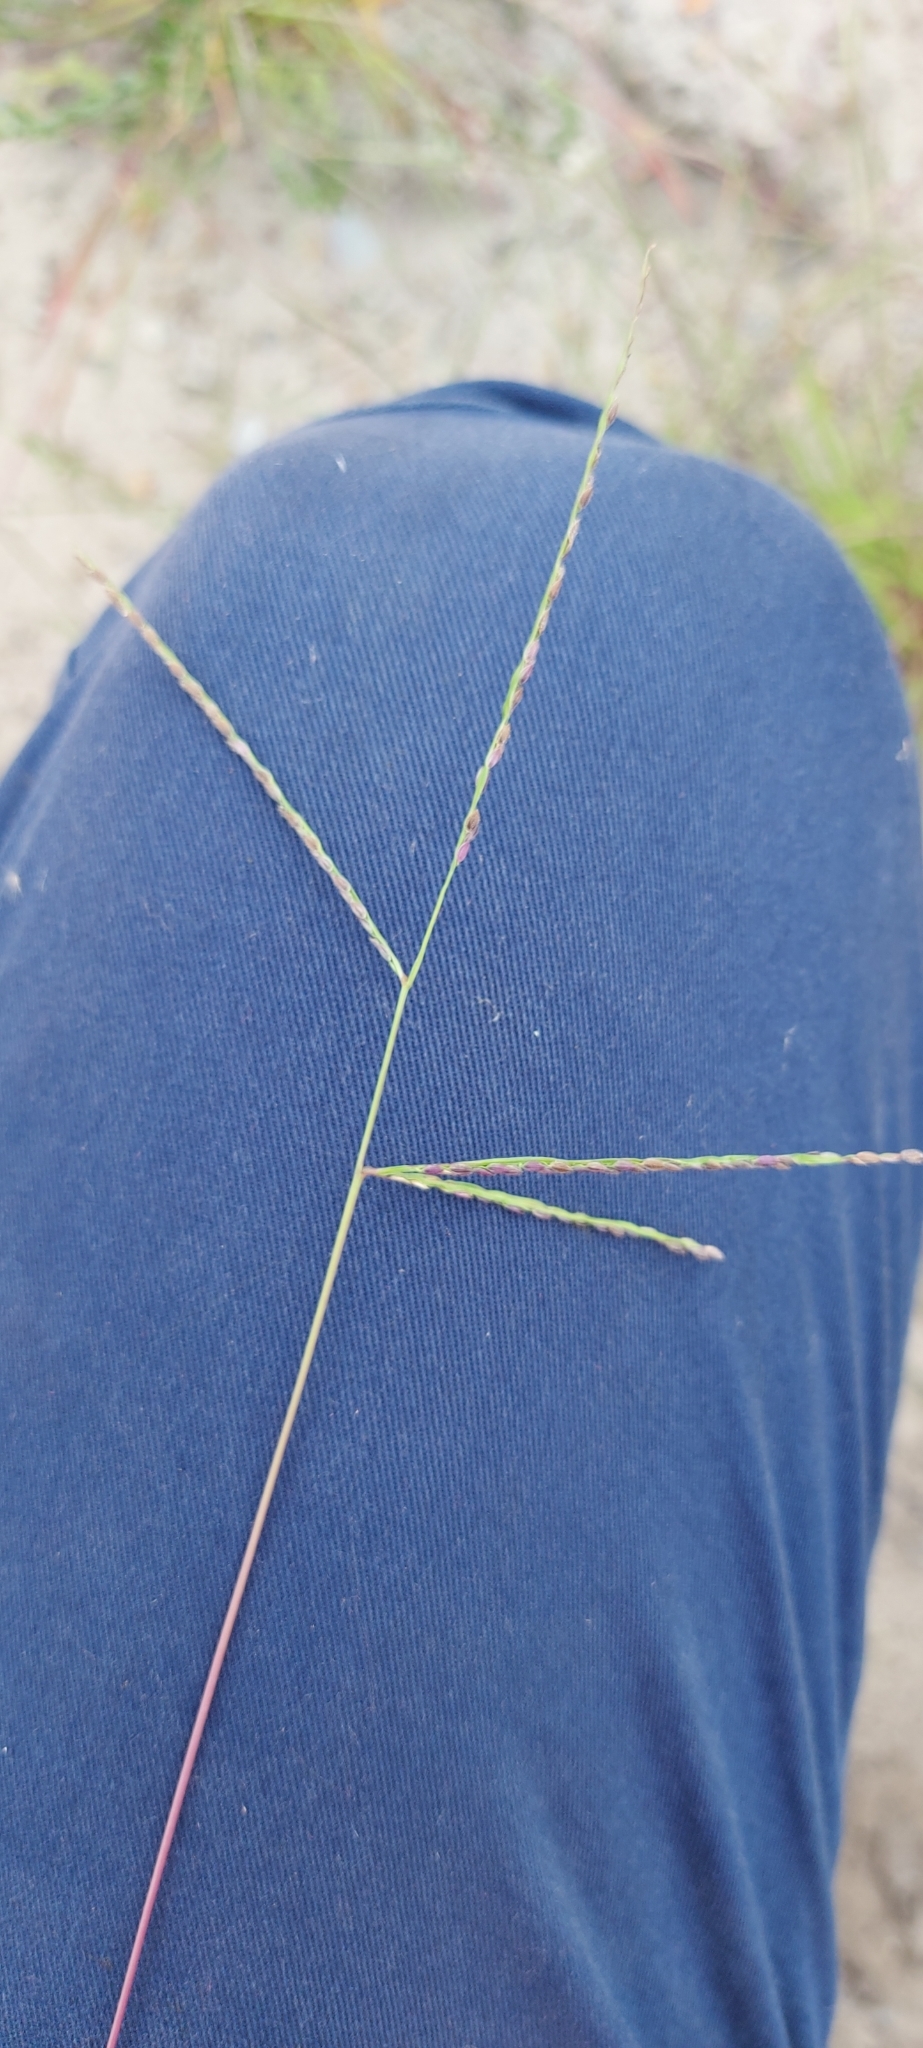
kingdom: Plantae
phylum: Tracheophyta
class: Liliopsida
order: Poales
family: Poaceae
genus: Digitaria
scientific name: Digitaria ischaemum
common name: Smooth crabgrass
